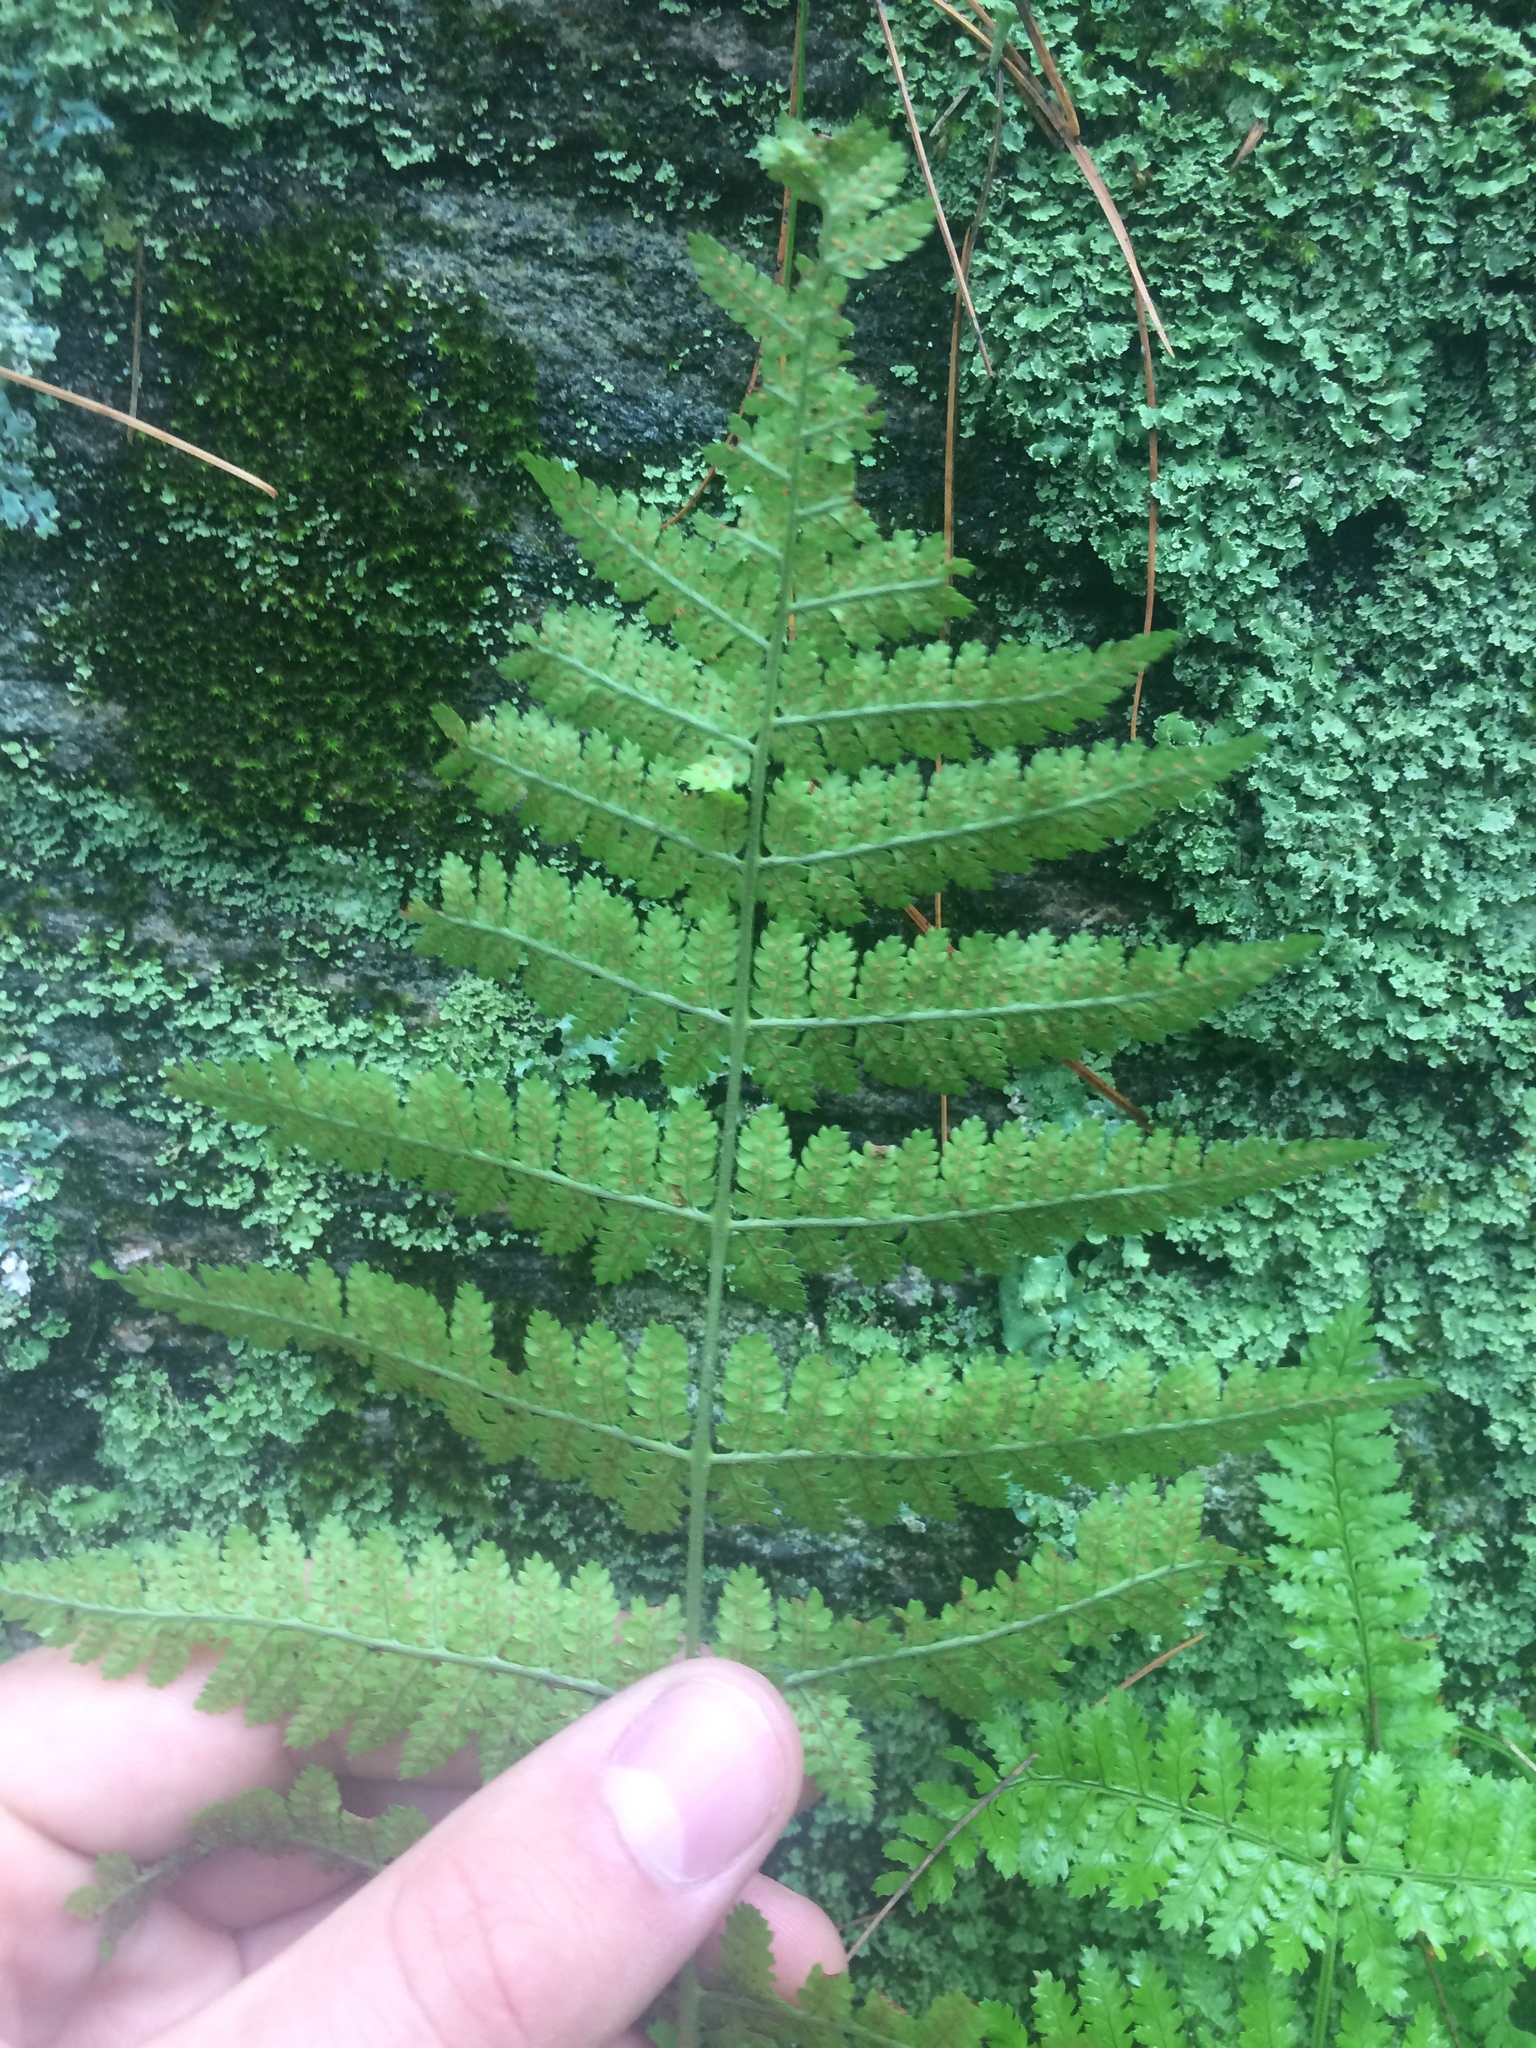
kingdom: Plantae
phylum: Tracheophyta
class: Polypodiopsida
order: Polypodiales
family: Dryopteridaceae
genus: Dryopteris
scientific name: Dryopteris carthusiana
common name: Narrow buckler-fern
